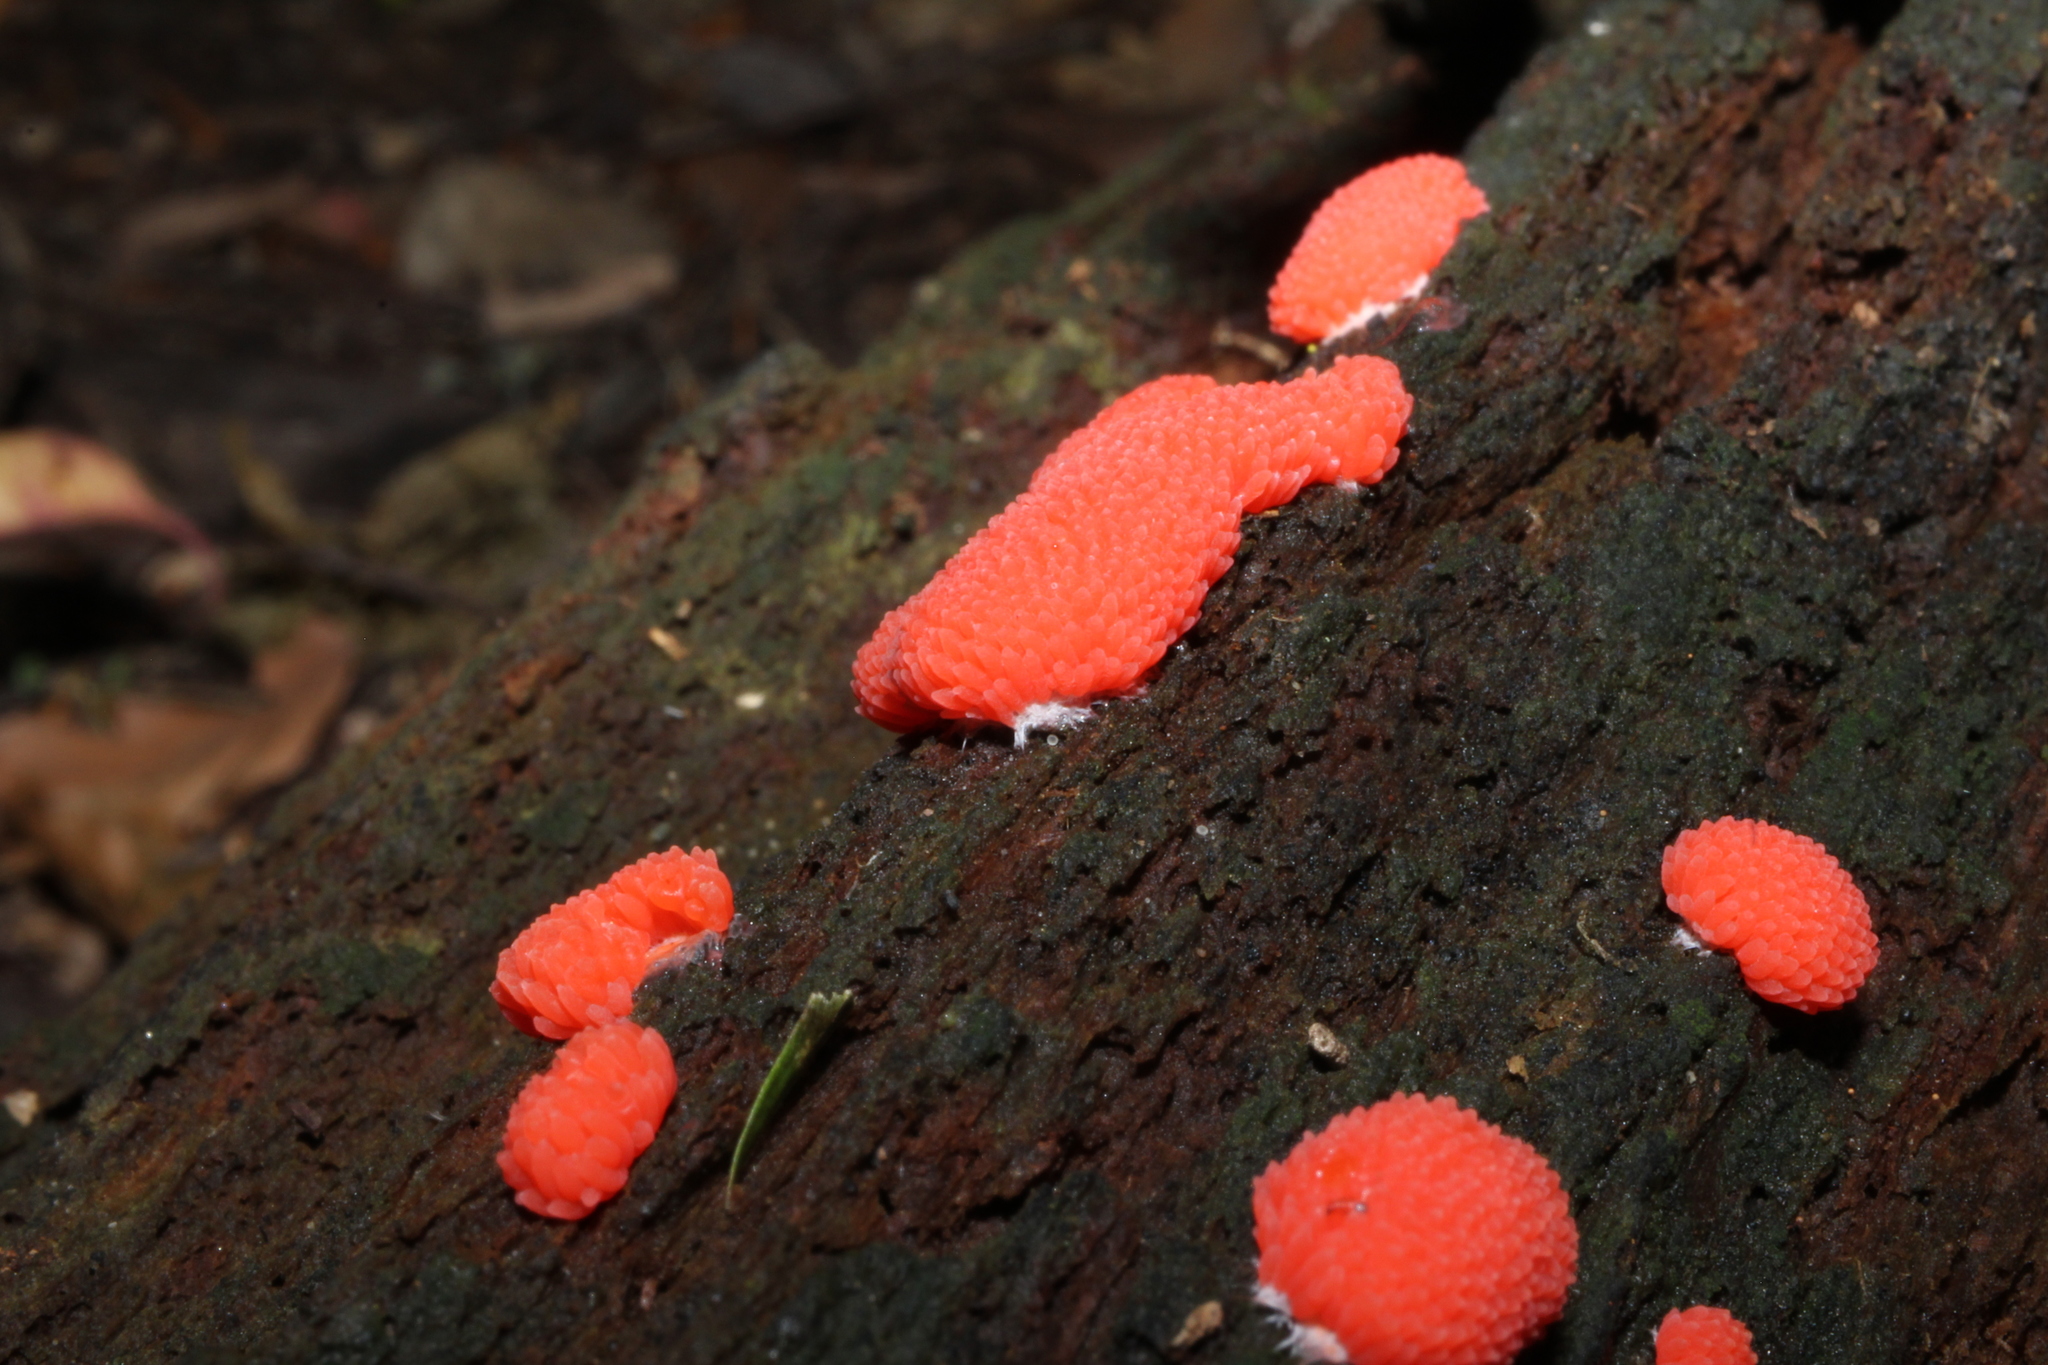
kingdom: Protozoa
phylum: Mycetozoa
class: Myxomycetes
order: Cribrariales
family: Tubiferaceae
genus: Tubifera
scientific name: Tubifera ferruginosa
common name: Red raspberry slime mold
